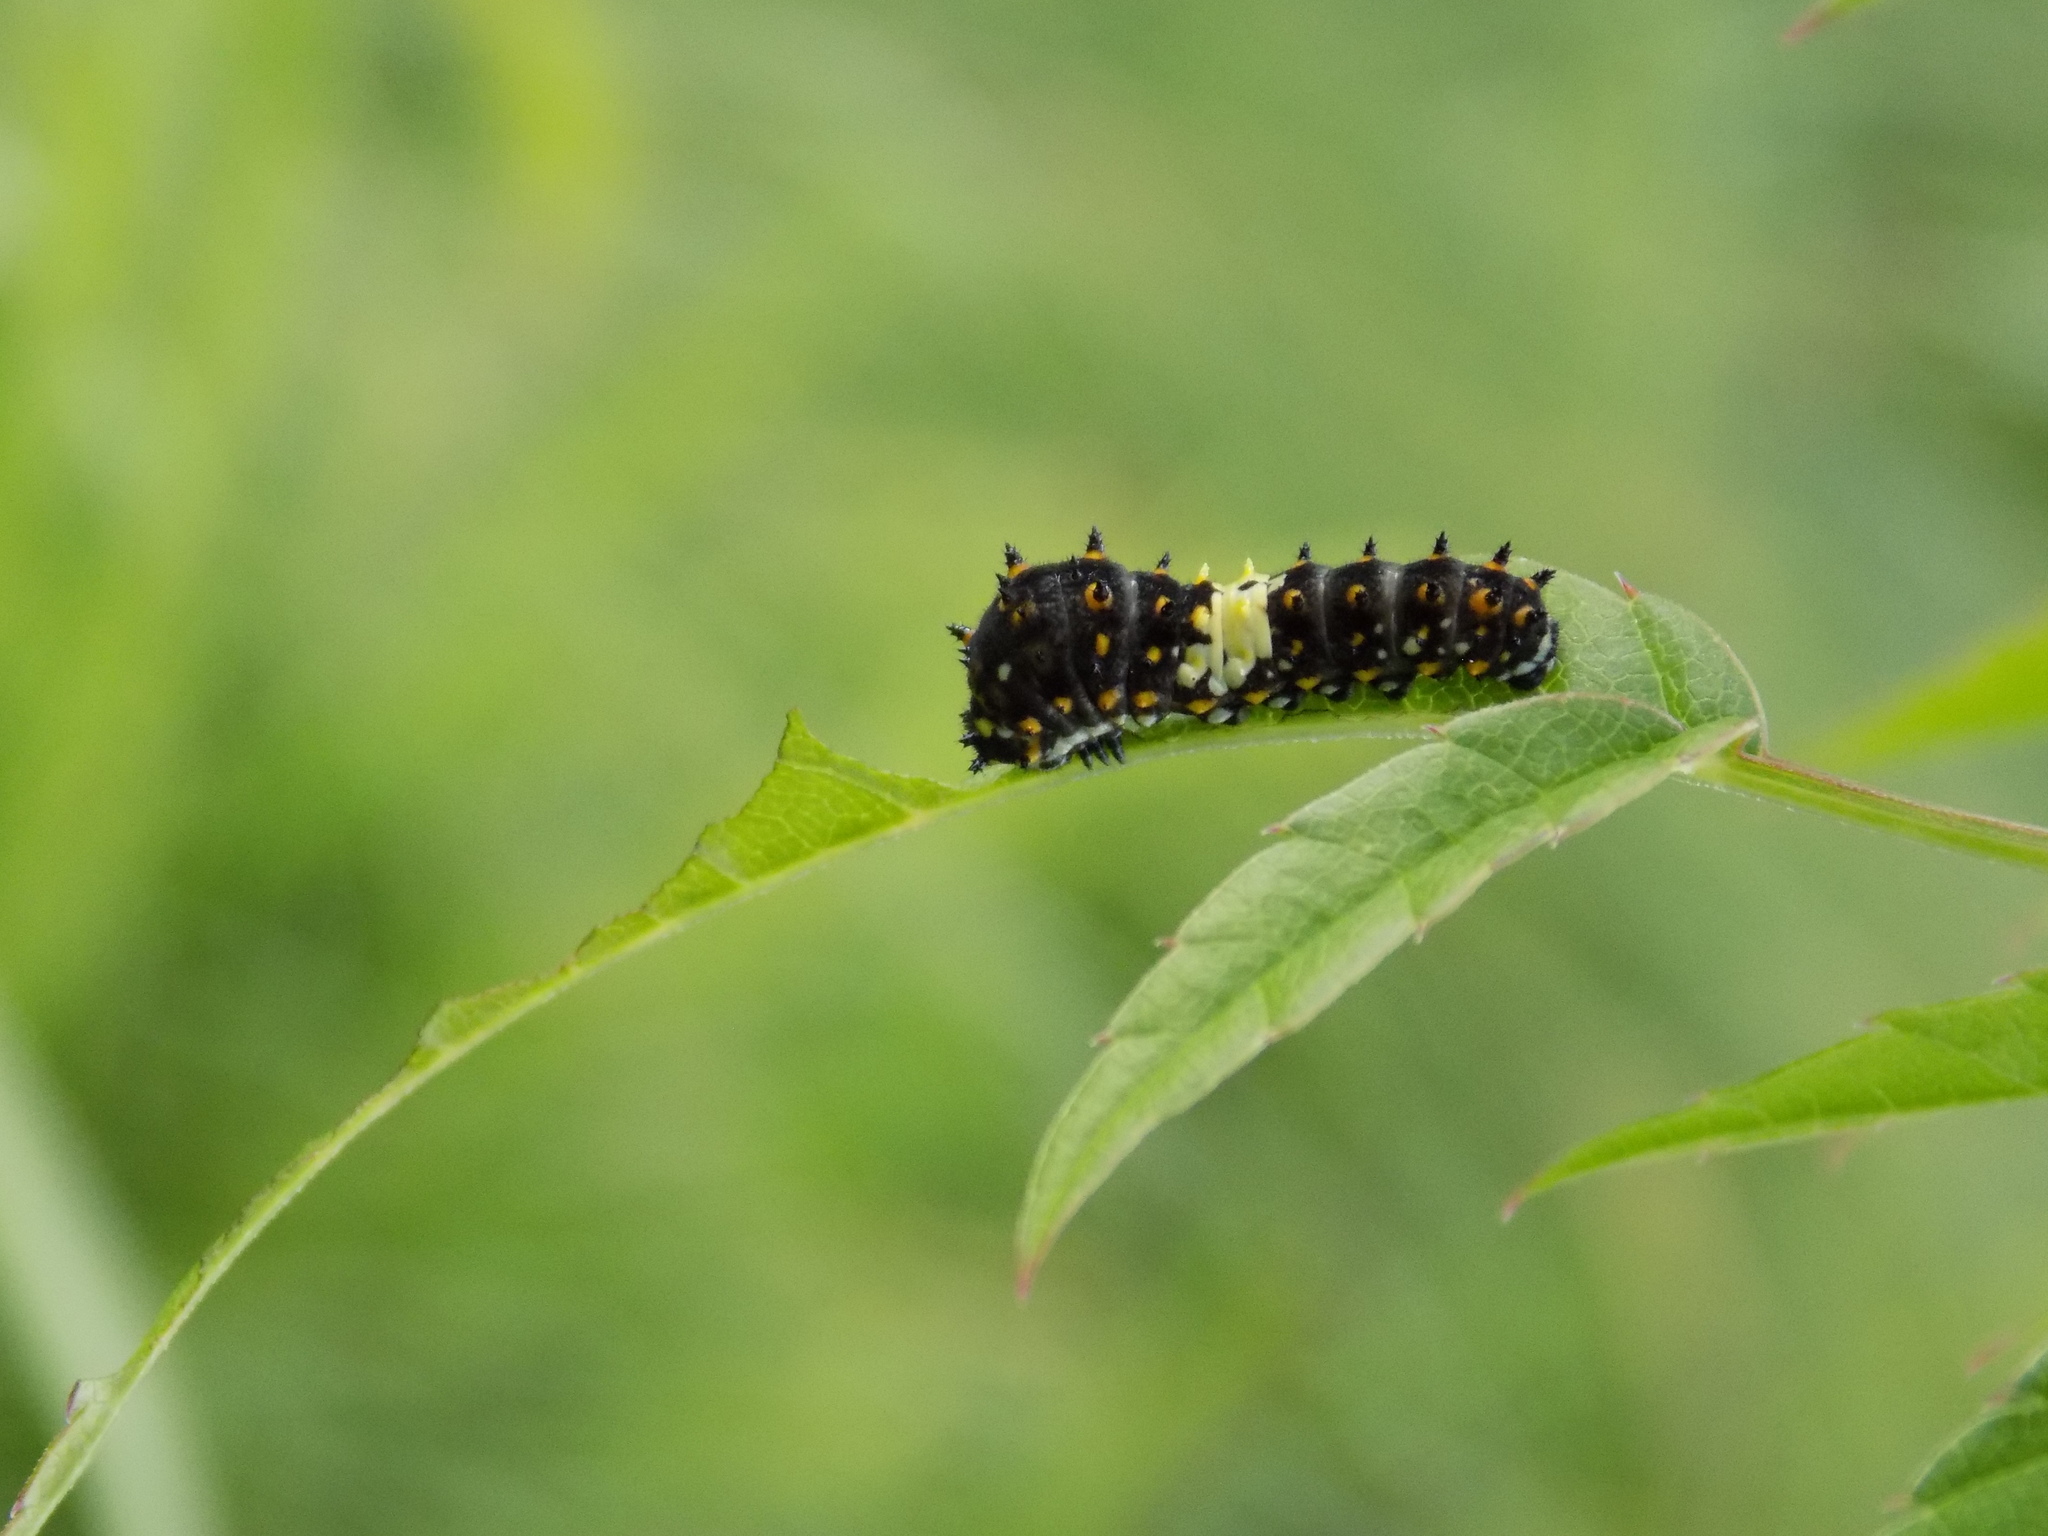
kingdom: Animalia
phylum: Arthropoda
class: Insecta
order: Lepidoptera
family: Papilionidae
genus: Papilio
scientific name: Papilio polyxenes
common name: Black swallowtail
